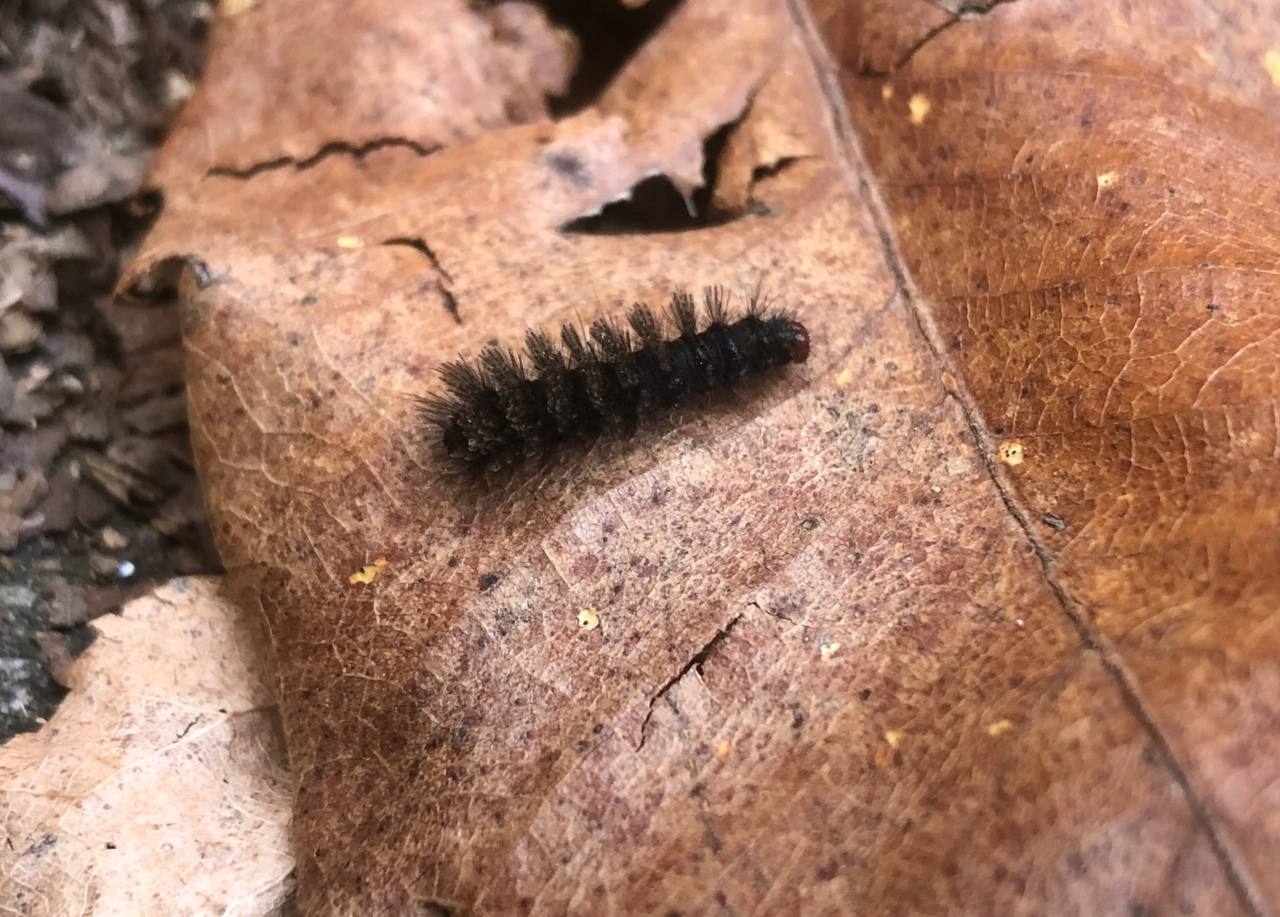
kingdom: Animalia
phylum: Arthropoda
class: Insecta
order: Lepidoptera
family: Erebidae
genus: Amata
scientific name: Amata phegea
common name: Nine-spotted
